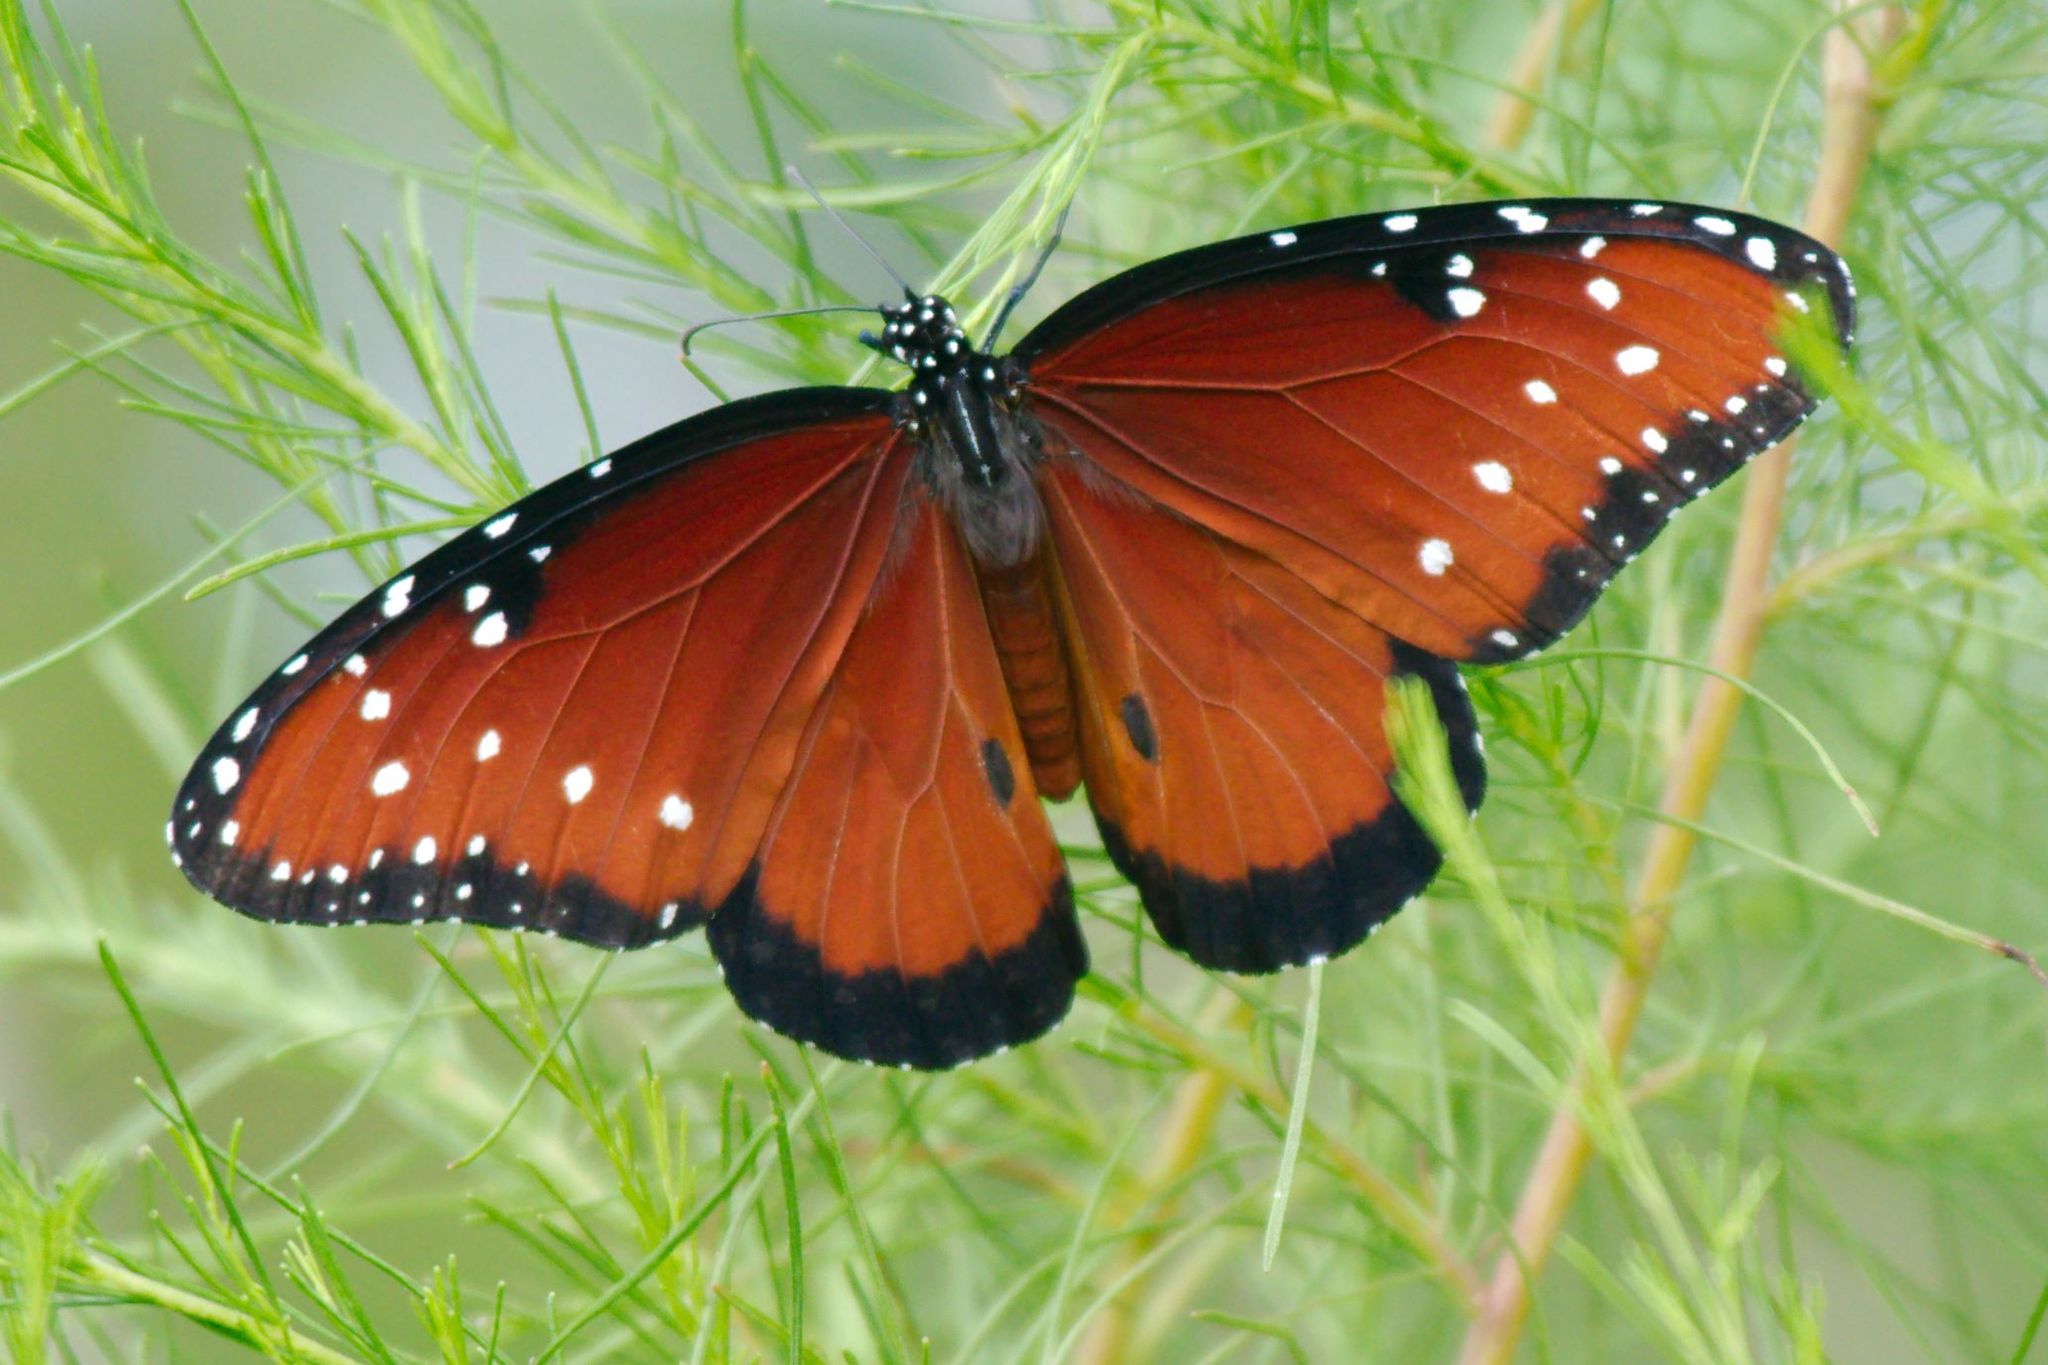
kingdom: Animalia
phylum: Arthropoda
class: Insecta
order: Lepidoptera
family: Nymphalidae
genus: Danaus
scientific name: Danaus gilippus
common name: Queen
